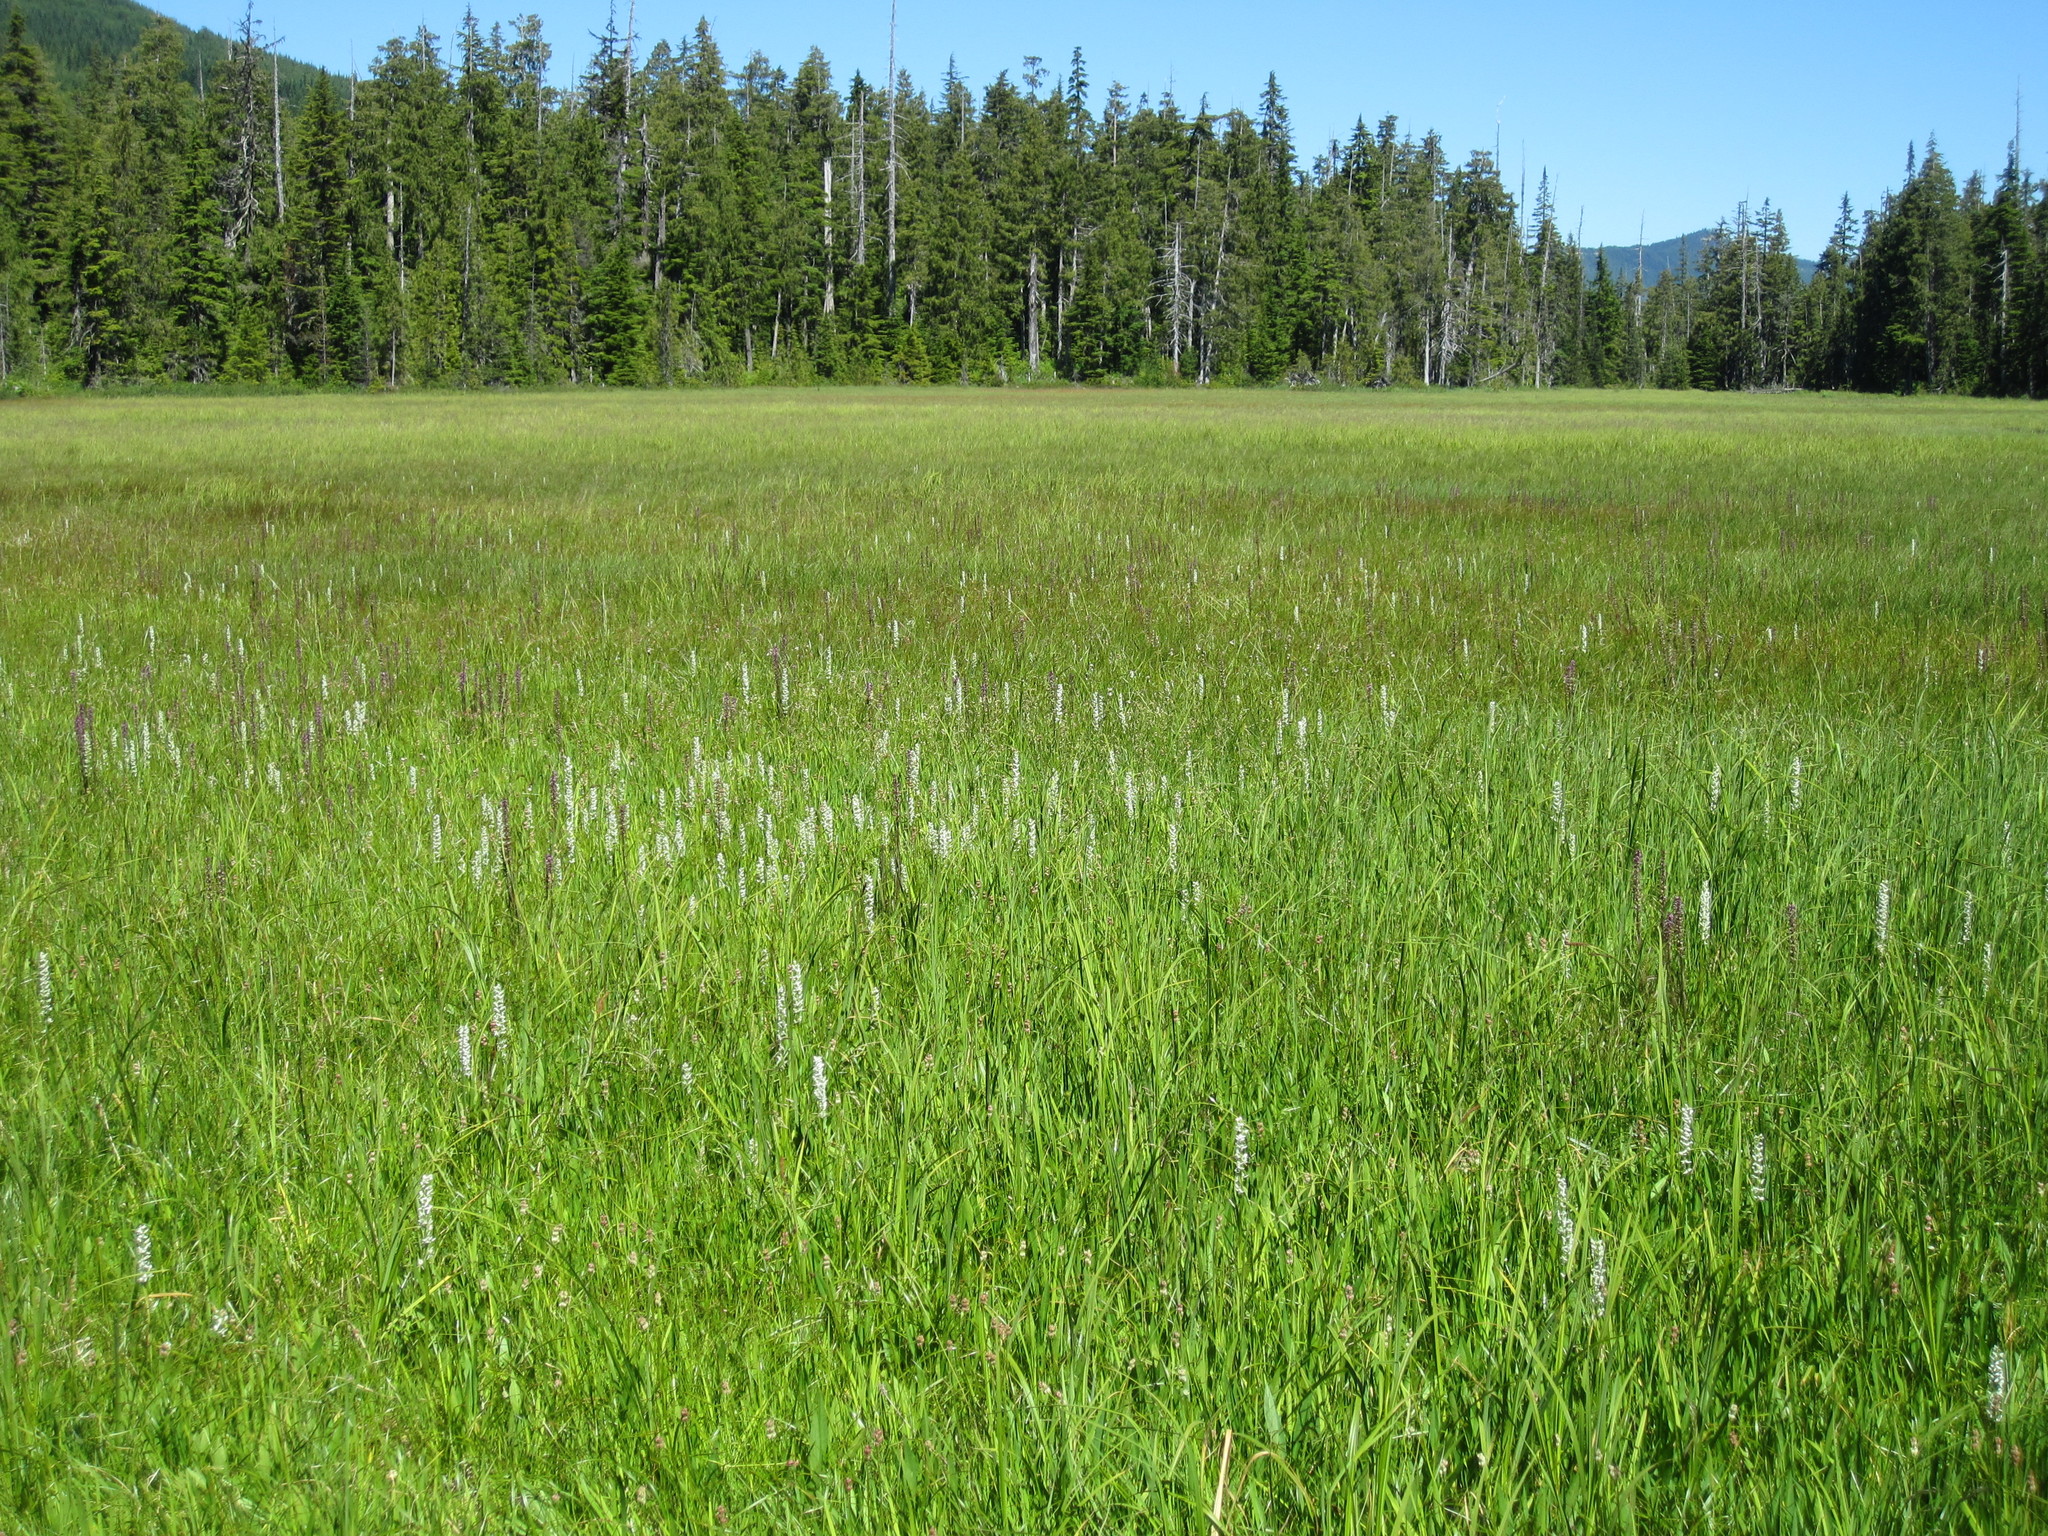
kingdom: Plantae
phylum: Tracheophyta
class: Liliopsida
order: Asparagales
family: Orchidaceae
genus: Platanthera
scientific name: Platanthera dilatata
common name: Bog candles
